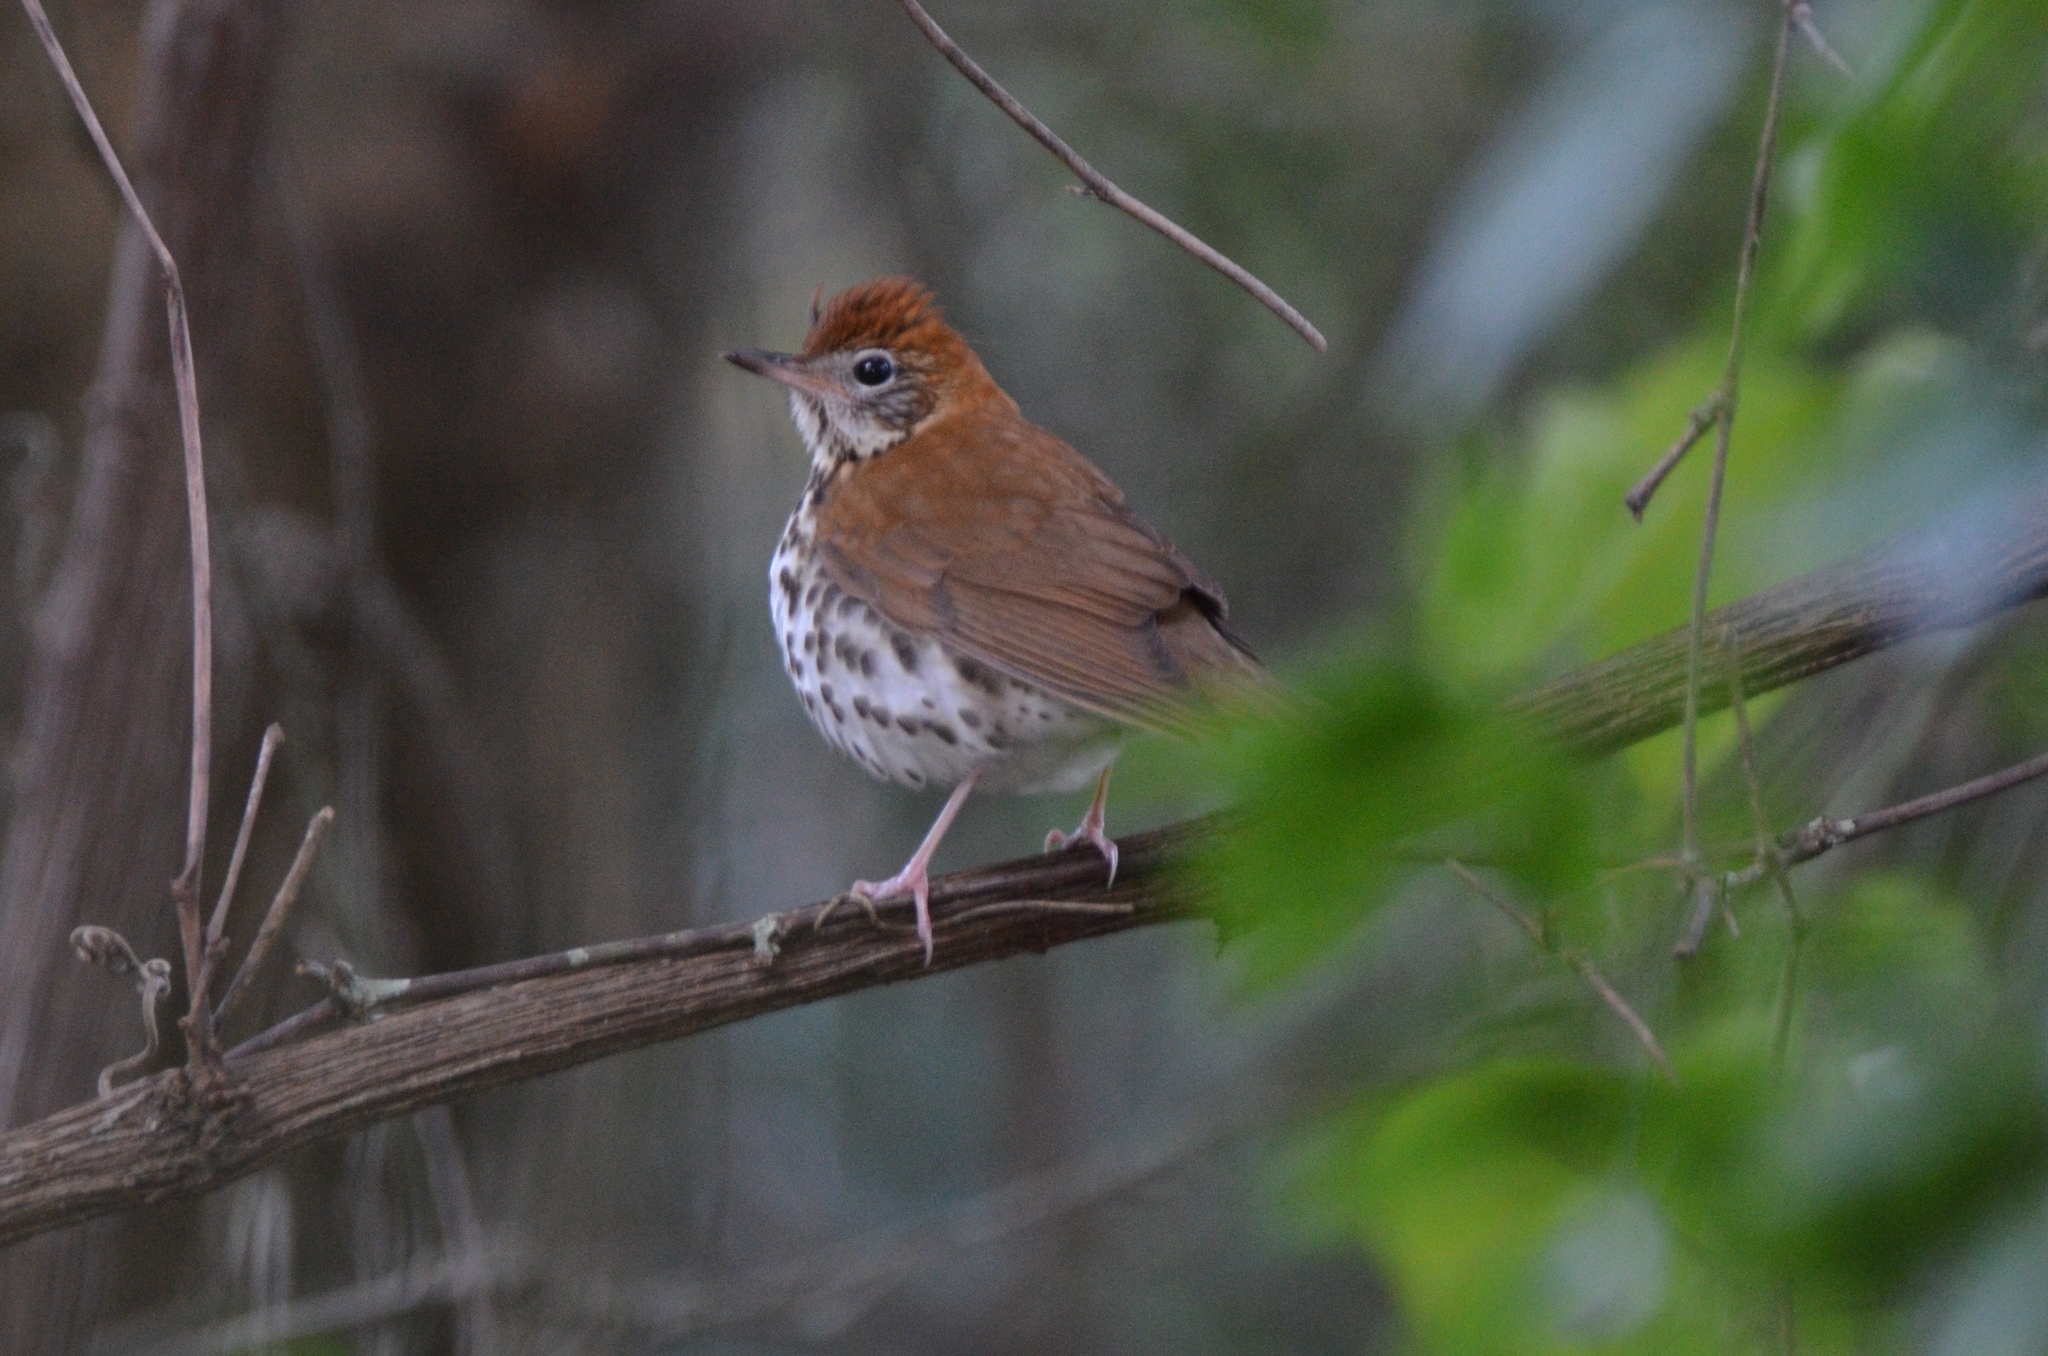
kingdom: Animalia
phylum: Chordata
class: Aves
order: Passeriformes
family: Turdidae
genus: Hylocichla
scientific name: Hylocichla mustelina
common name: Wood thrush
